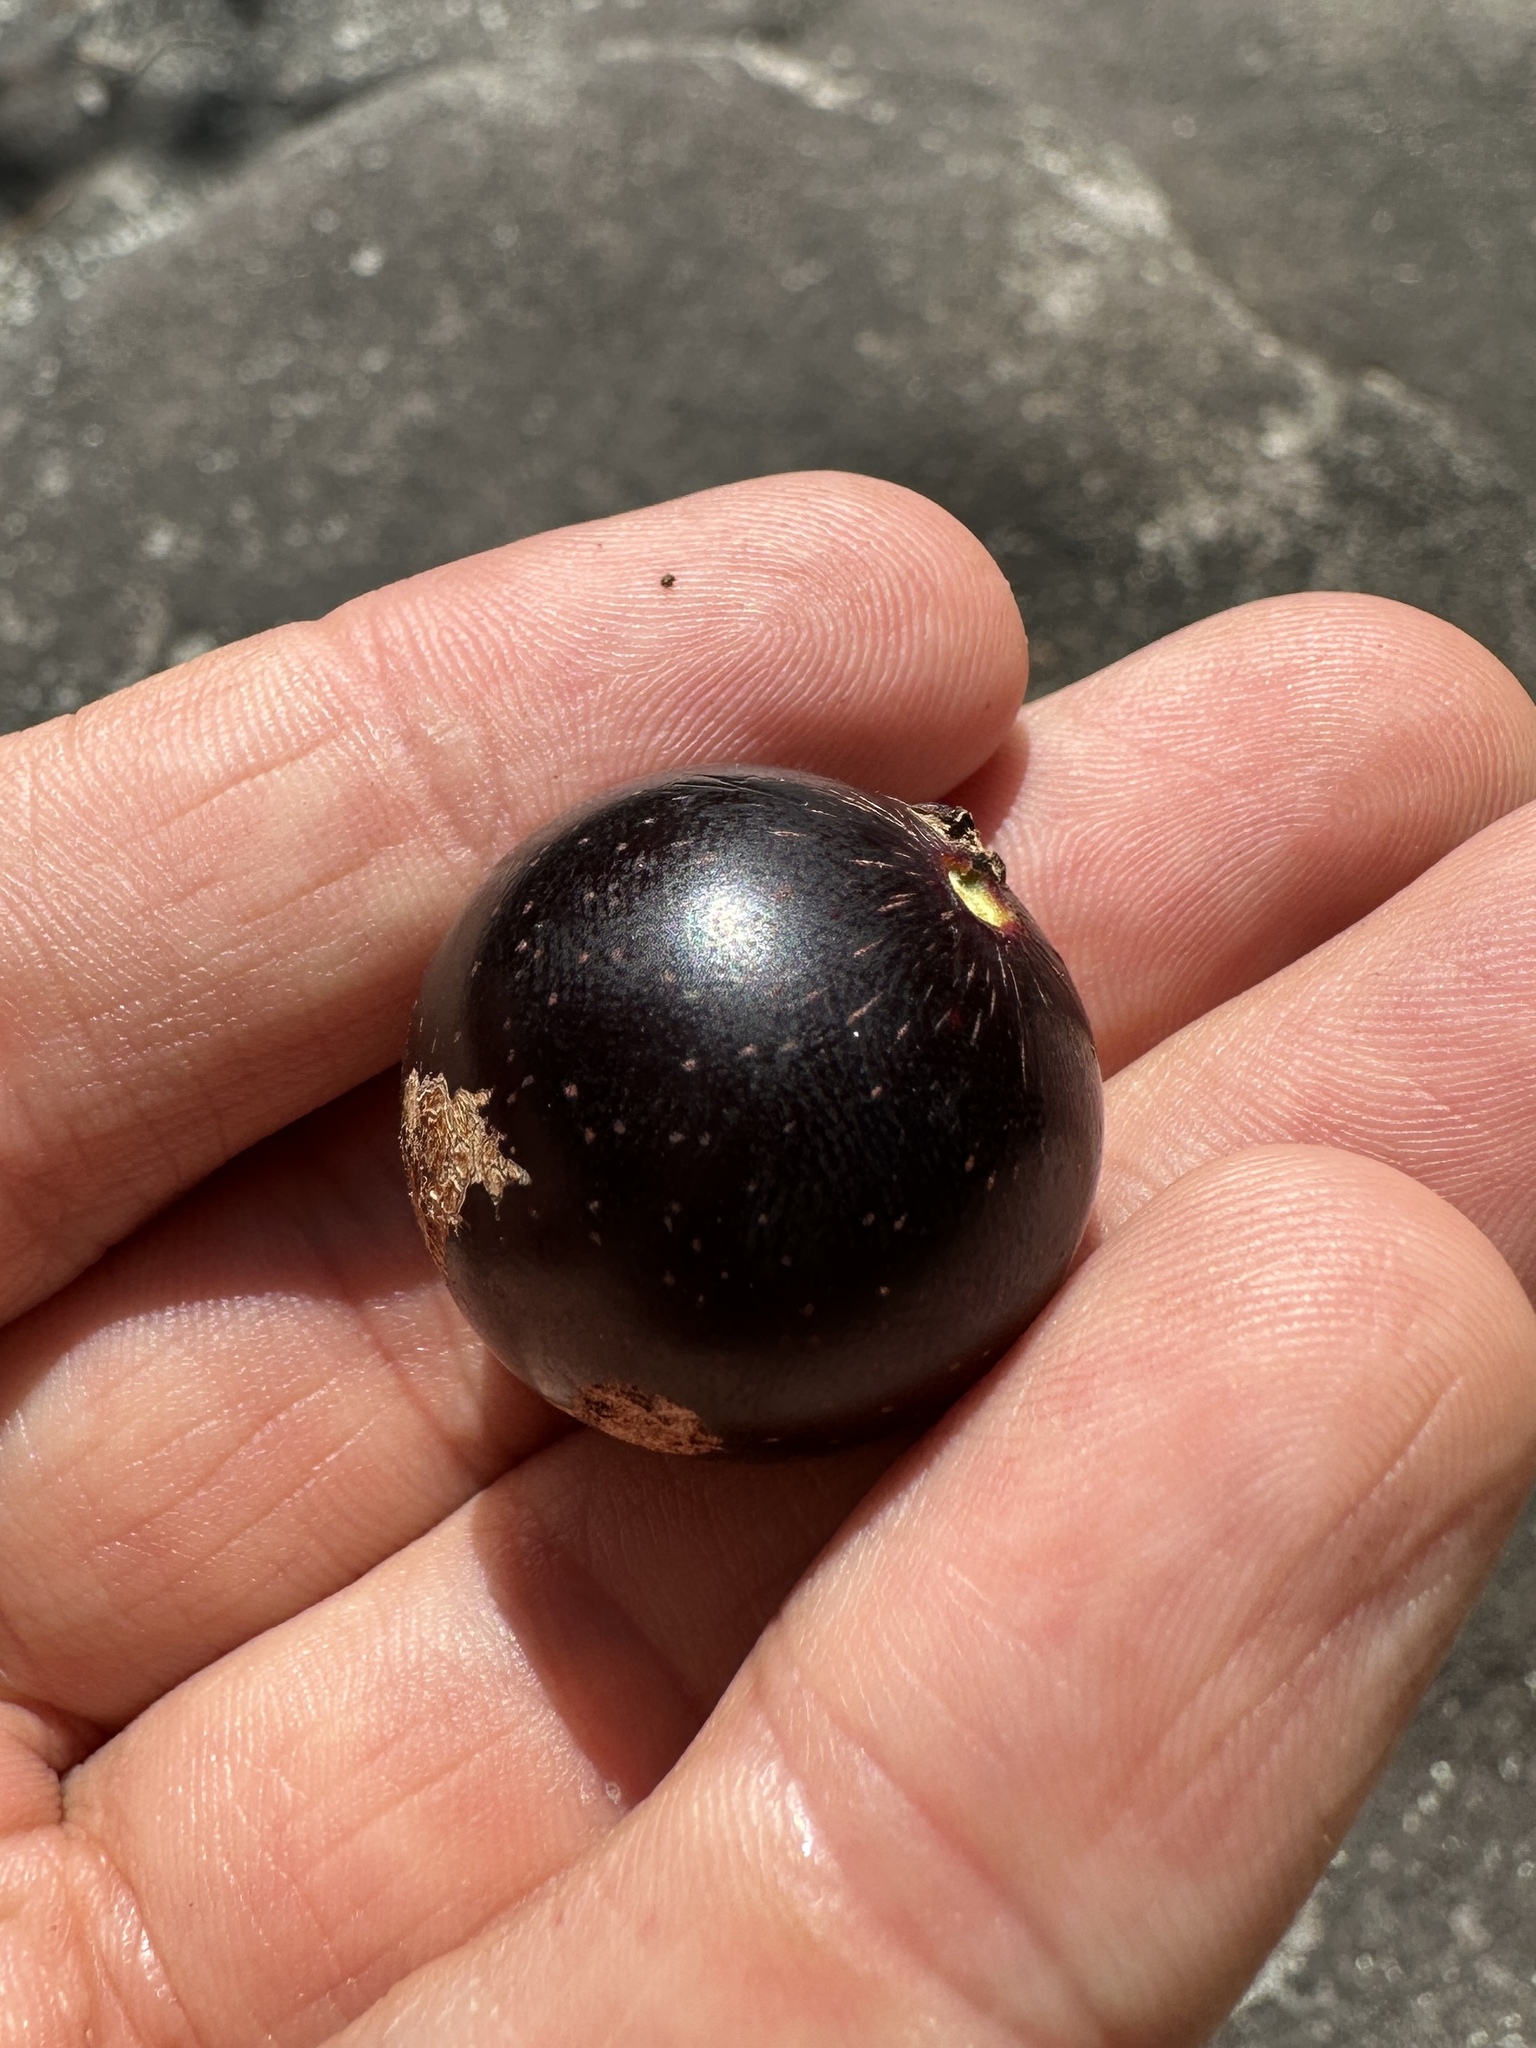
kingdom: Plantae
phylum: Tracheophyta
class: Magnoliopsida
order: Vitales
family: Vitaceae
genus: Vitis
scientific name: Vitis rotundifolia
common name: Muscadine grape
